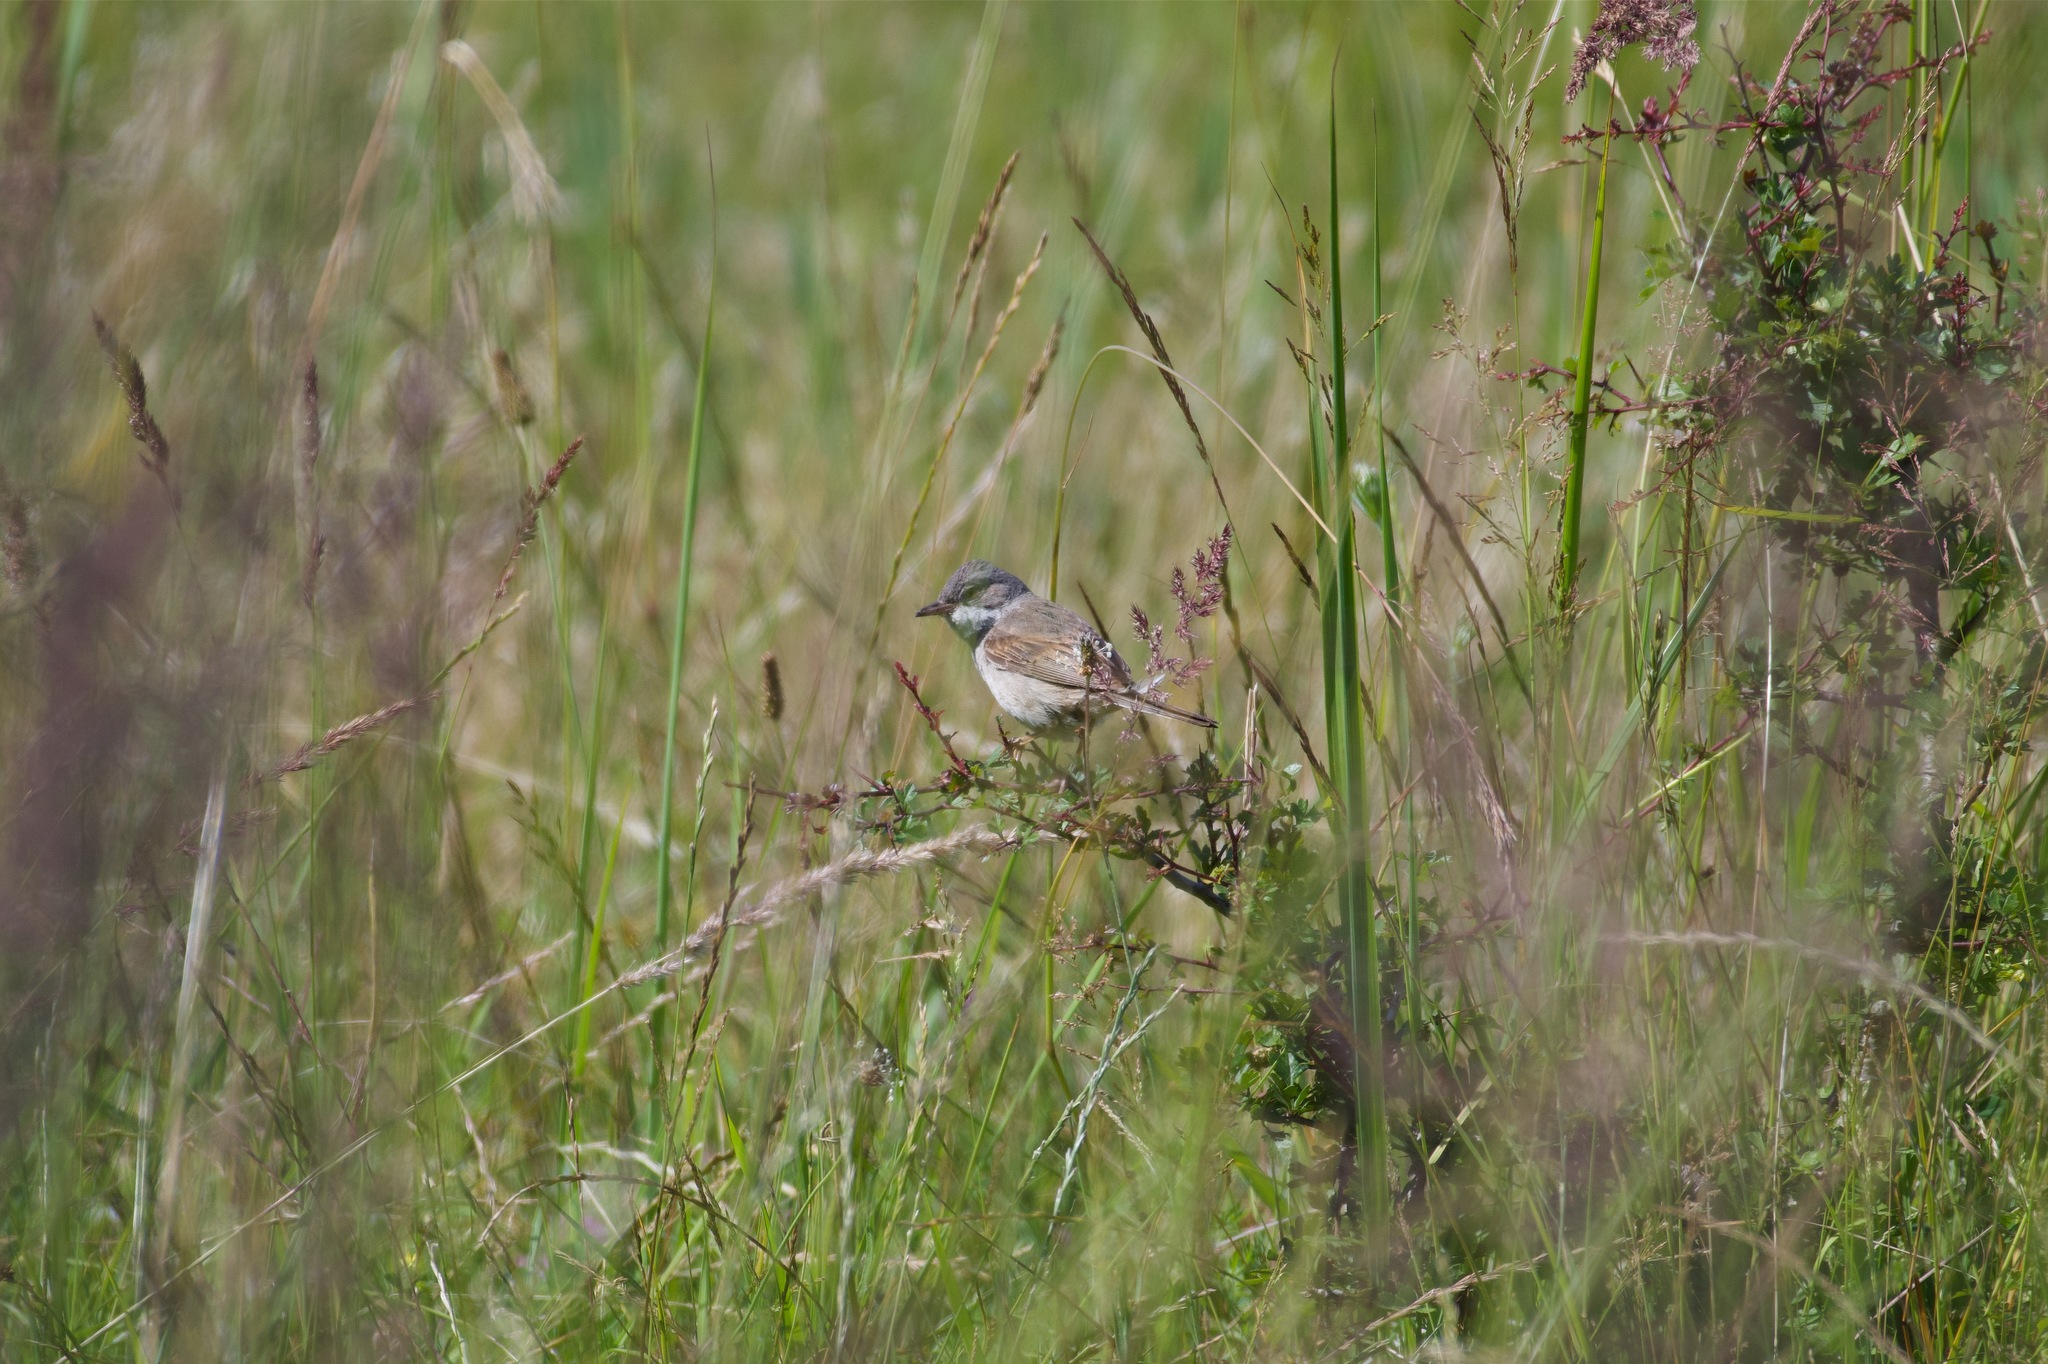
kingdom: Animalia
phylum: Chordata
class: Aves
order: Passeriformes
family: Sylviidae
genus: Sylvia
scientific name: Sylvia communis
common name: Common whitethroat
